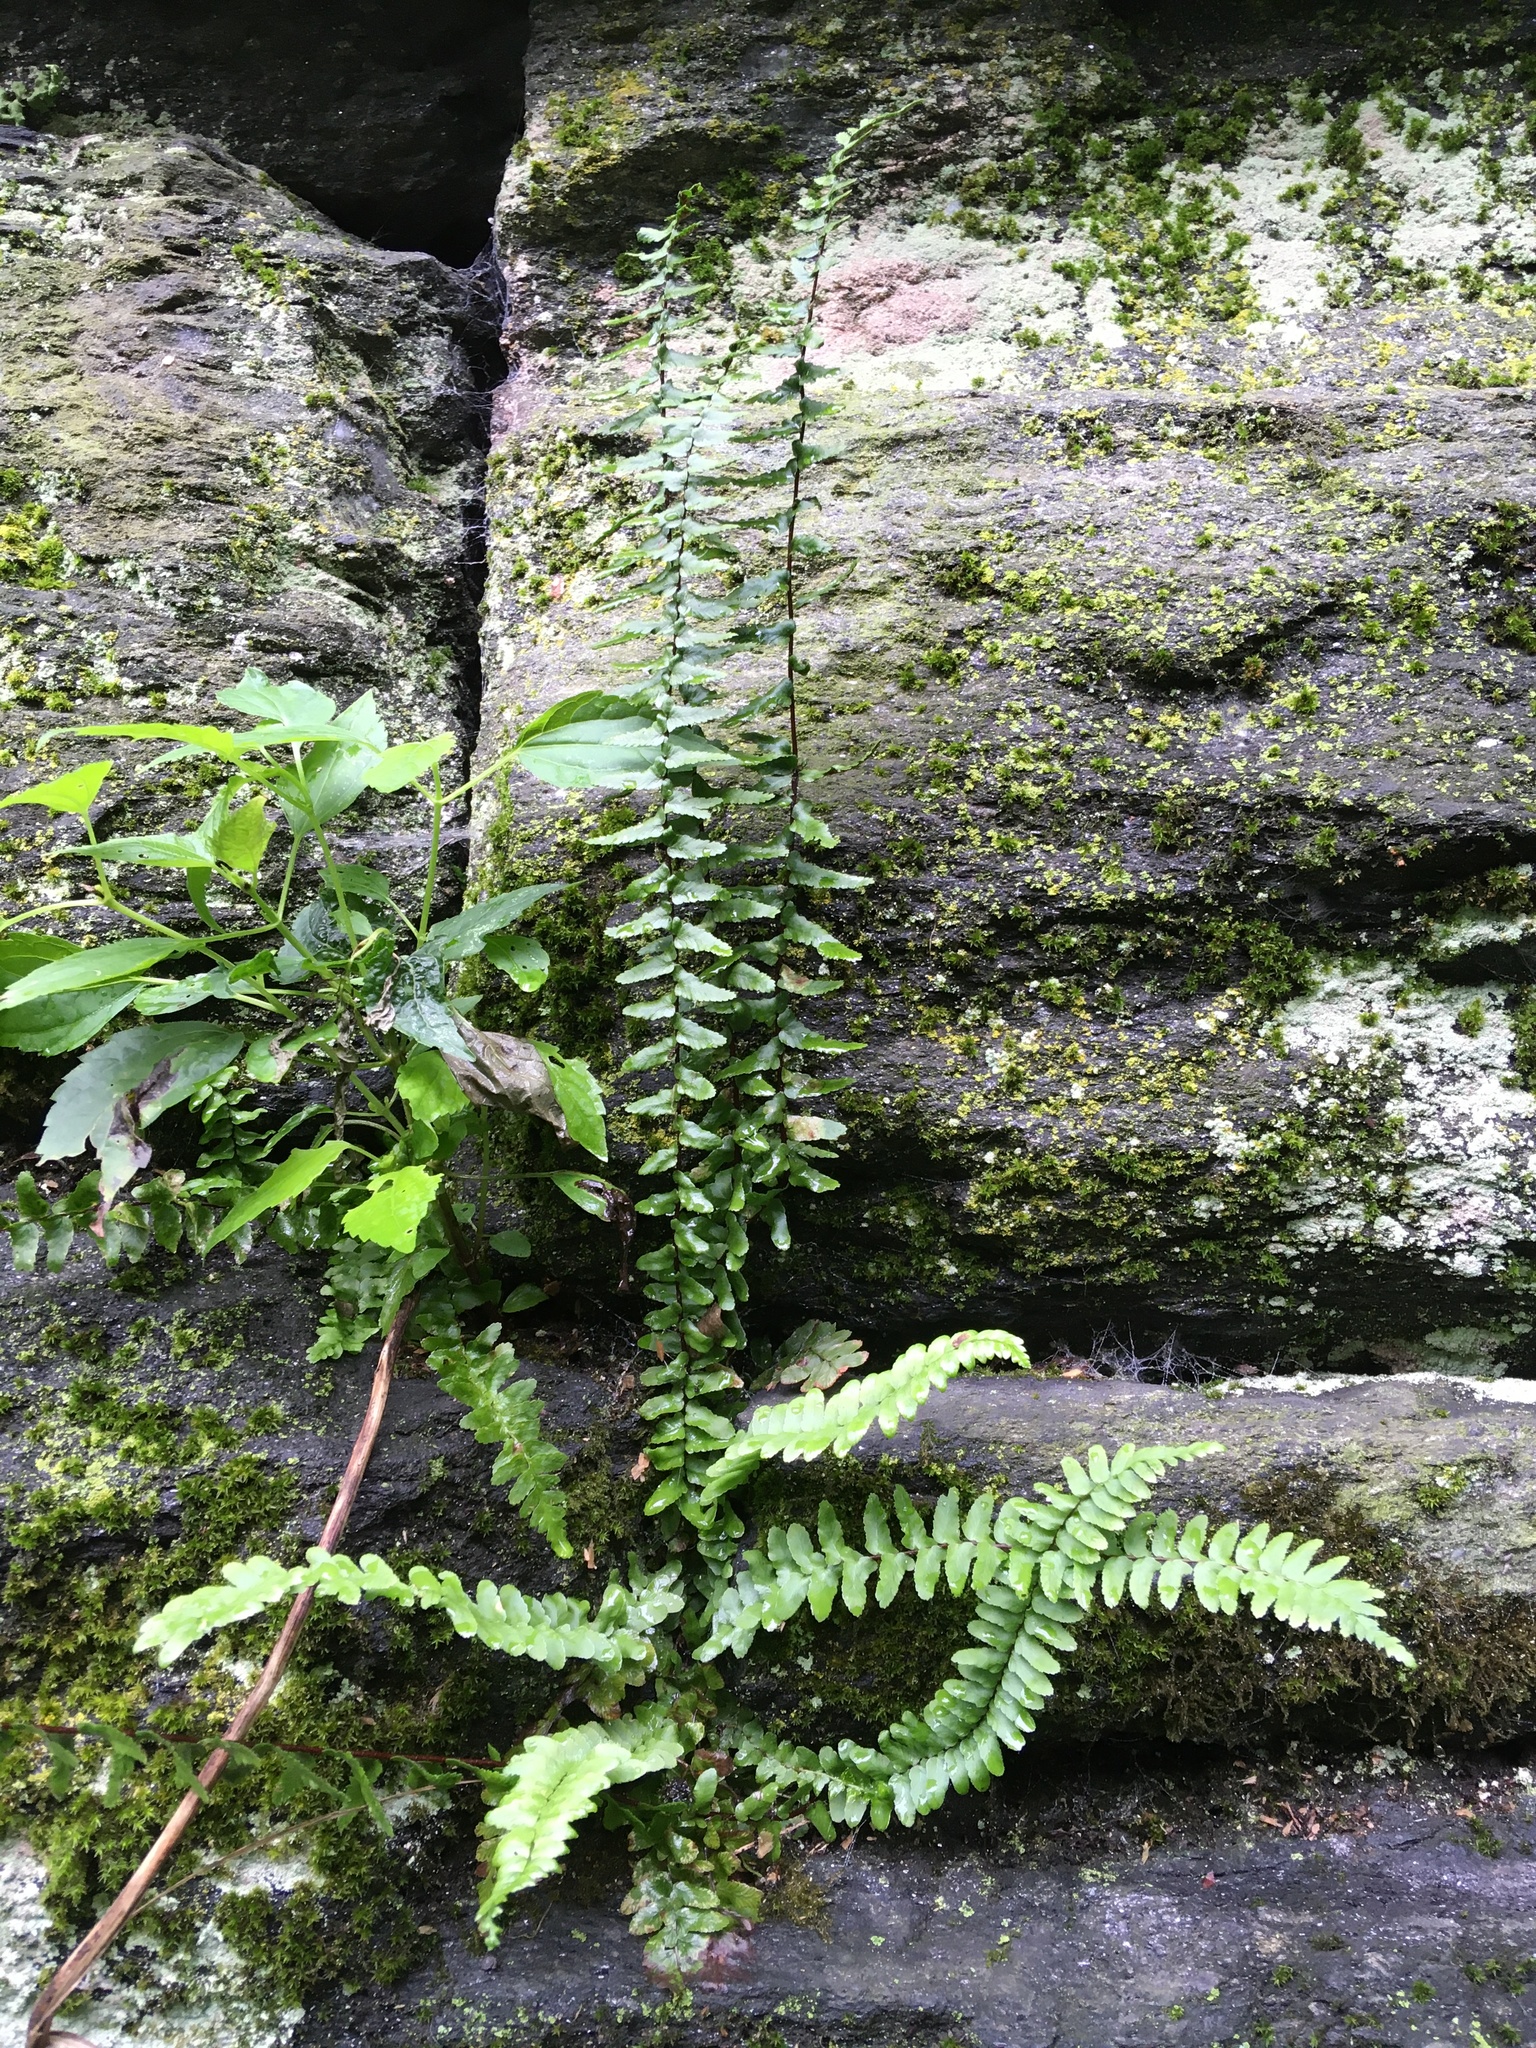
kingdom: Plantae
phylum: Tracheophyta
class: Polypodiopsida
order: Polypodiales
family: Aspleniaceae
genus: Asplenium
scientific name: Asplenium platyneuron
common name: Ebony spleenwort
